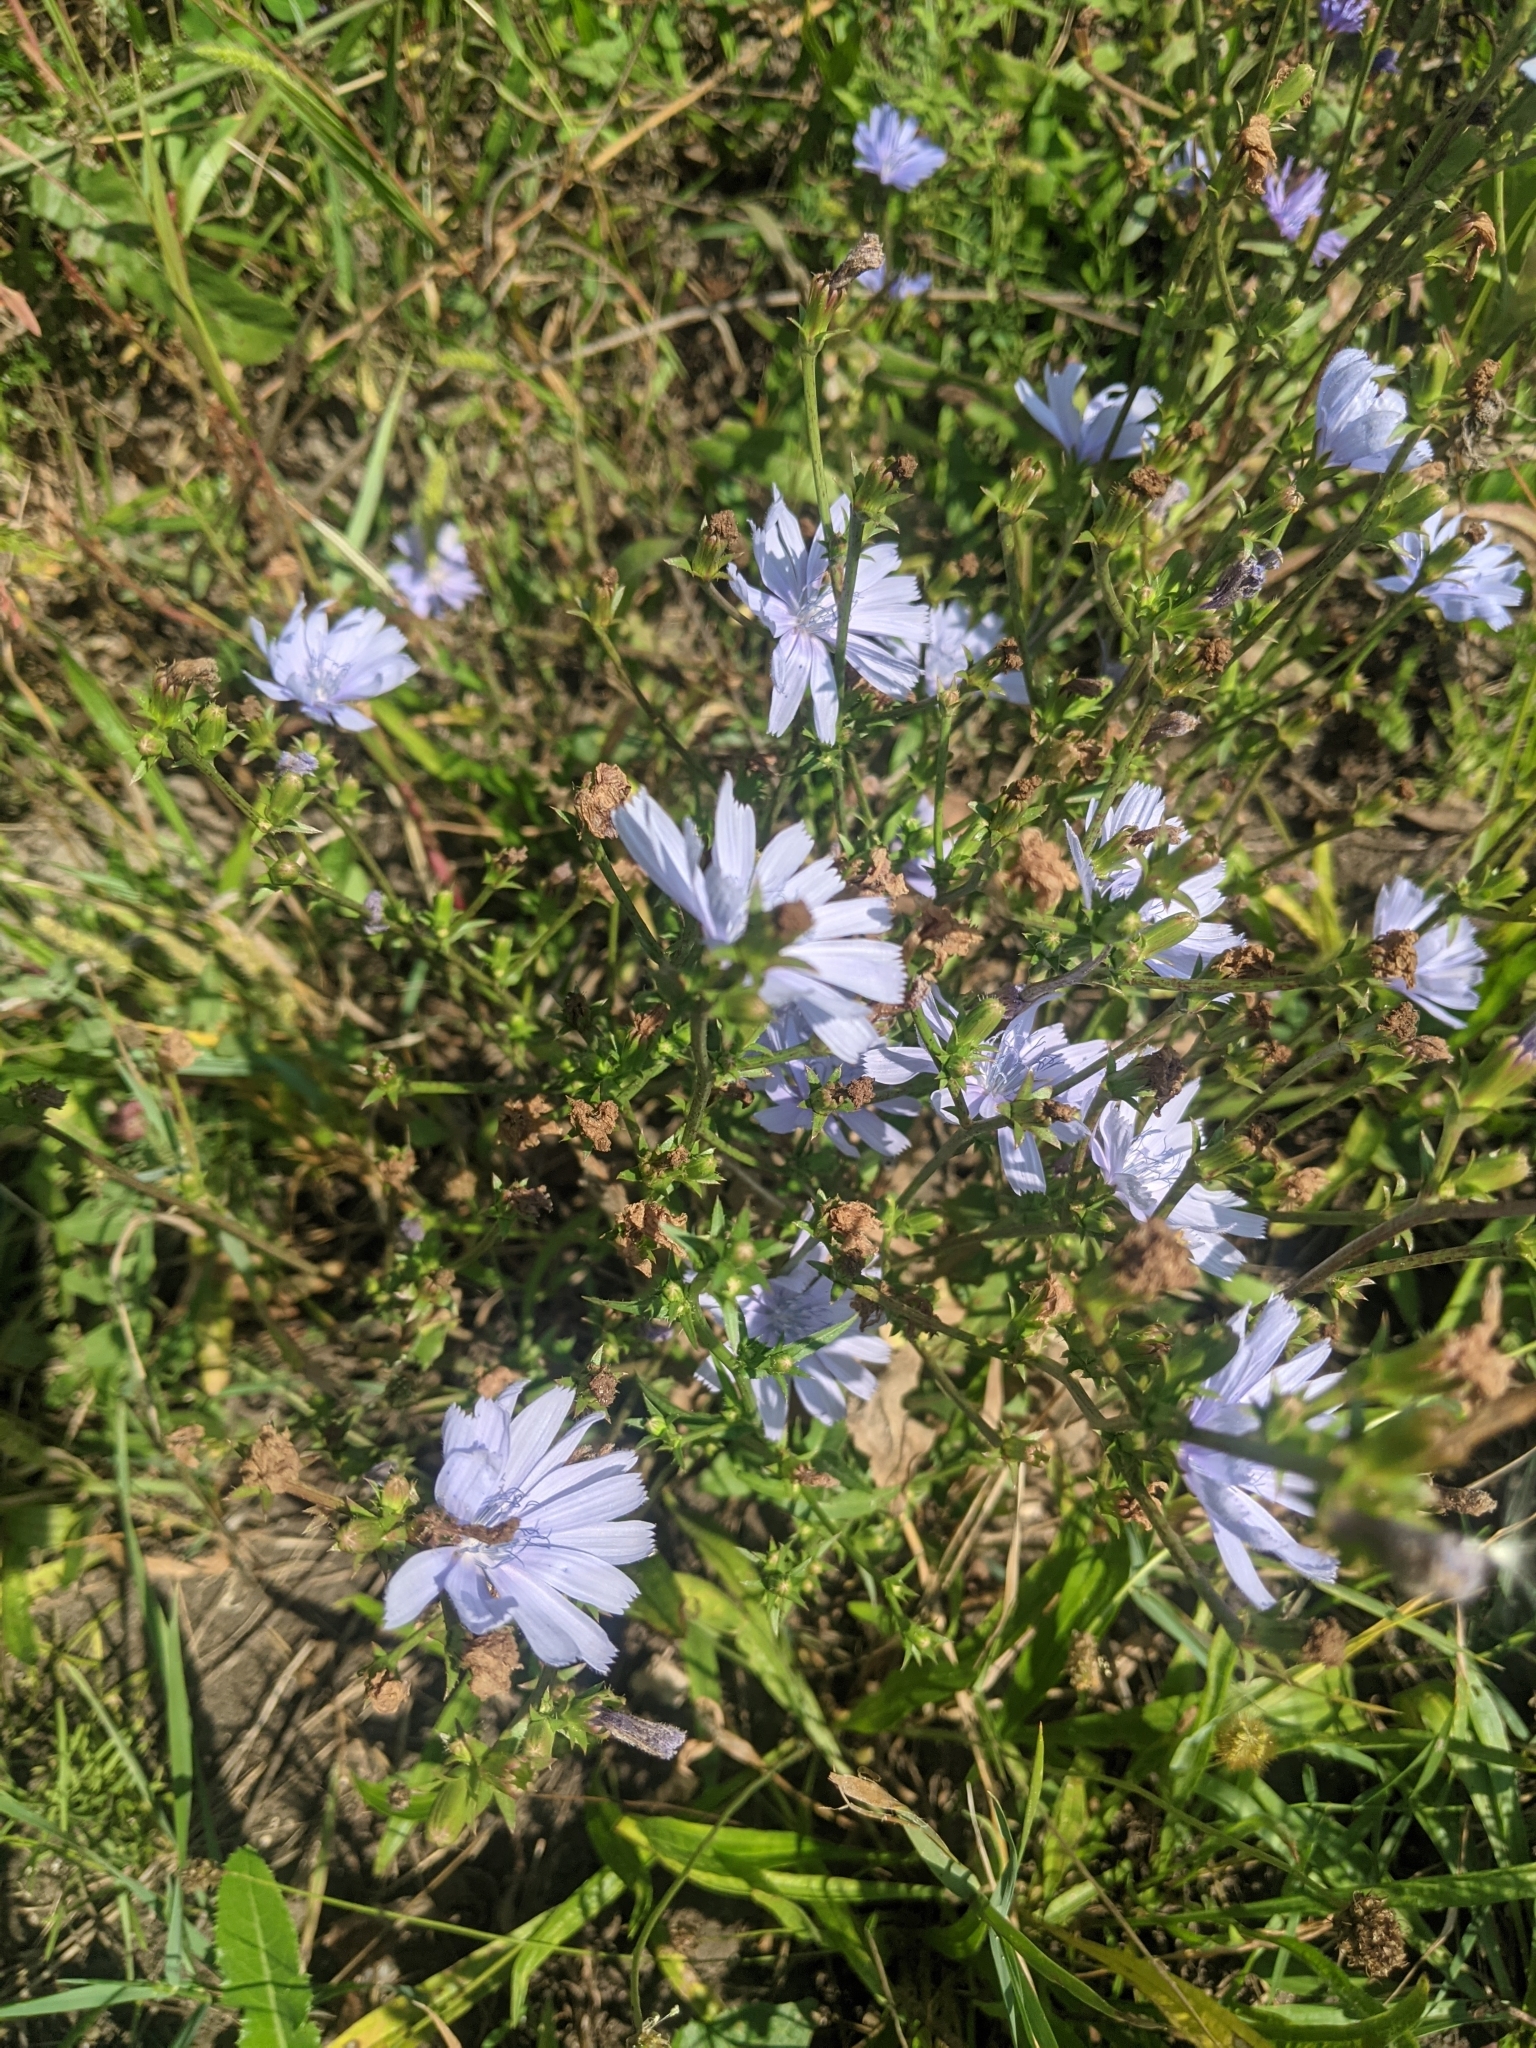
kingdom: Plantae
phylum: Tracheophyta
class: Magnoliopsida
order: Asterales
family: Asteraceae
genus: Cichorium
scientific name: Cichorium intybus
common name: Chicory
